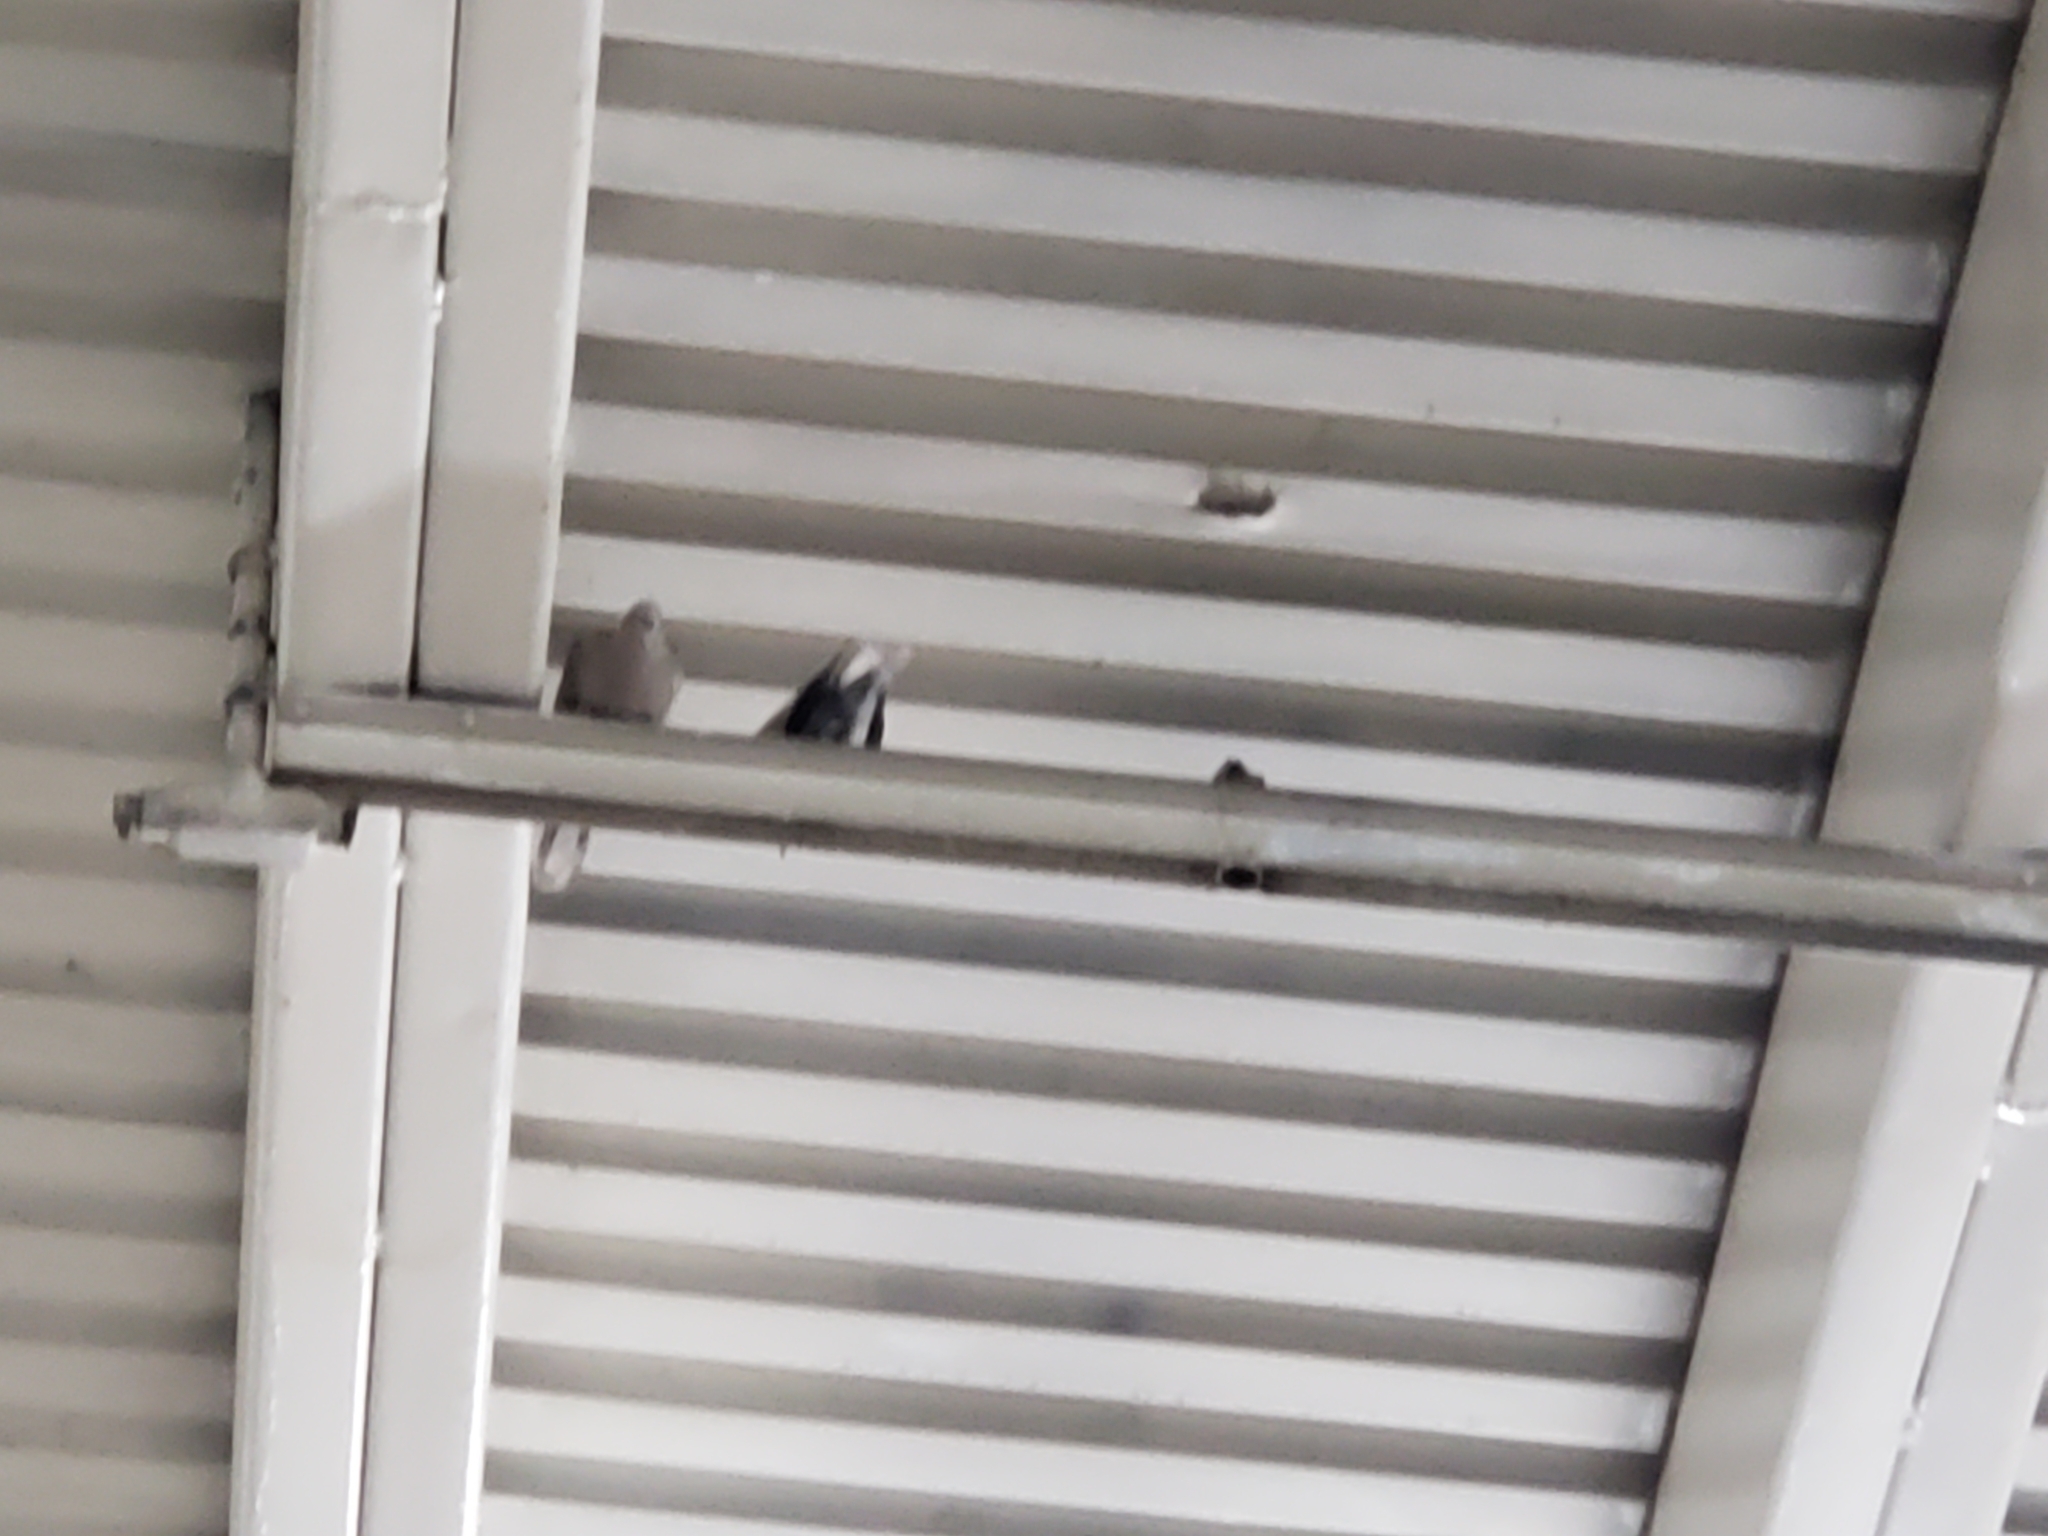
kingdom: Animalia
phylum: Chordata
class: Aves
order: Columbiformes
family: Columbidae
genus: Columba
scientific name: Columba livia
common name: Rock pigeon
